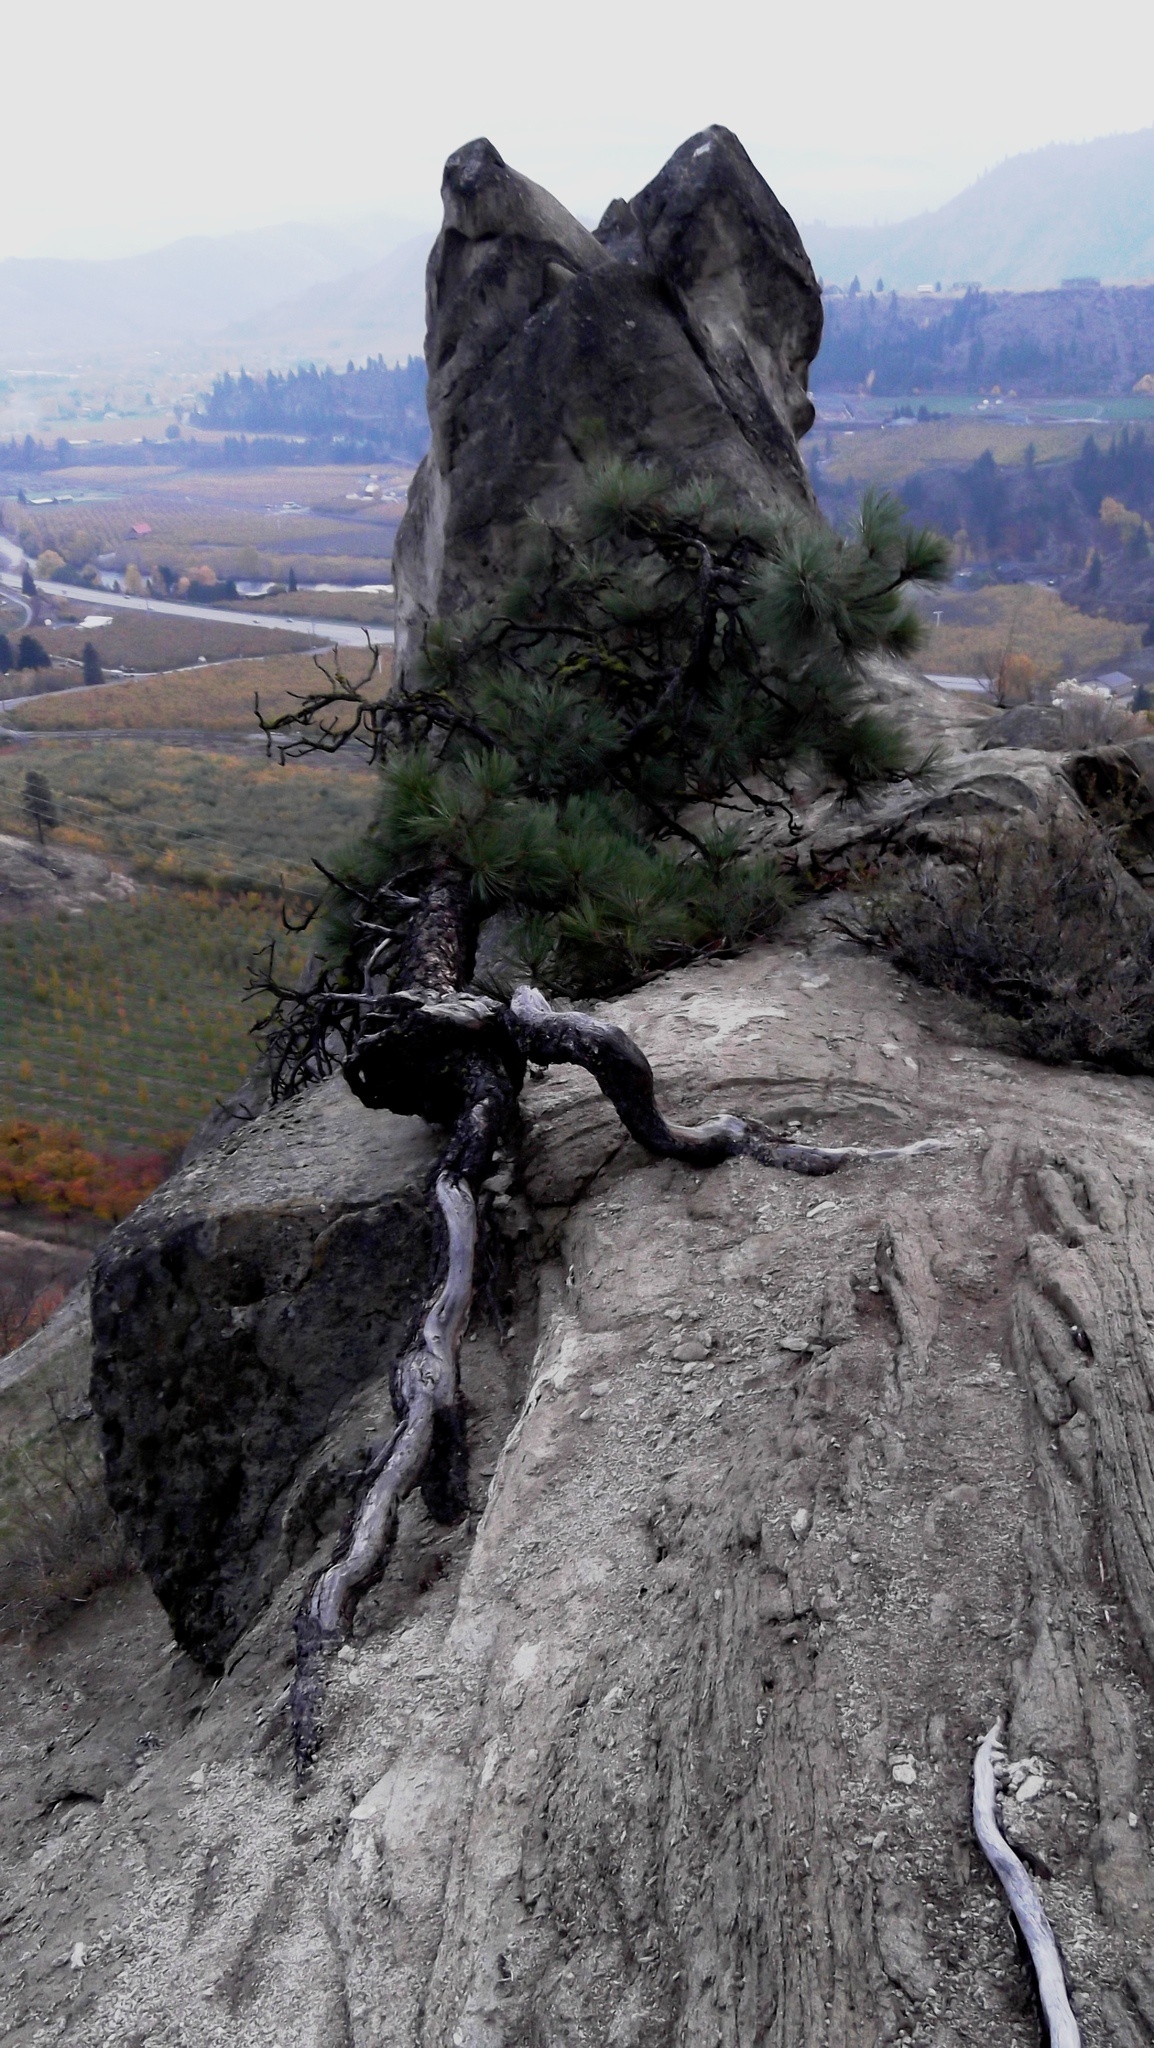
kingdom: Plantae
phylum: Tracheophyta
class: Pinopsida
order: Pinales
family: Pinaceae
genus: Pinus
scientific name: Pinus ponderosa
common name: Western yellow-pine
